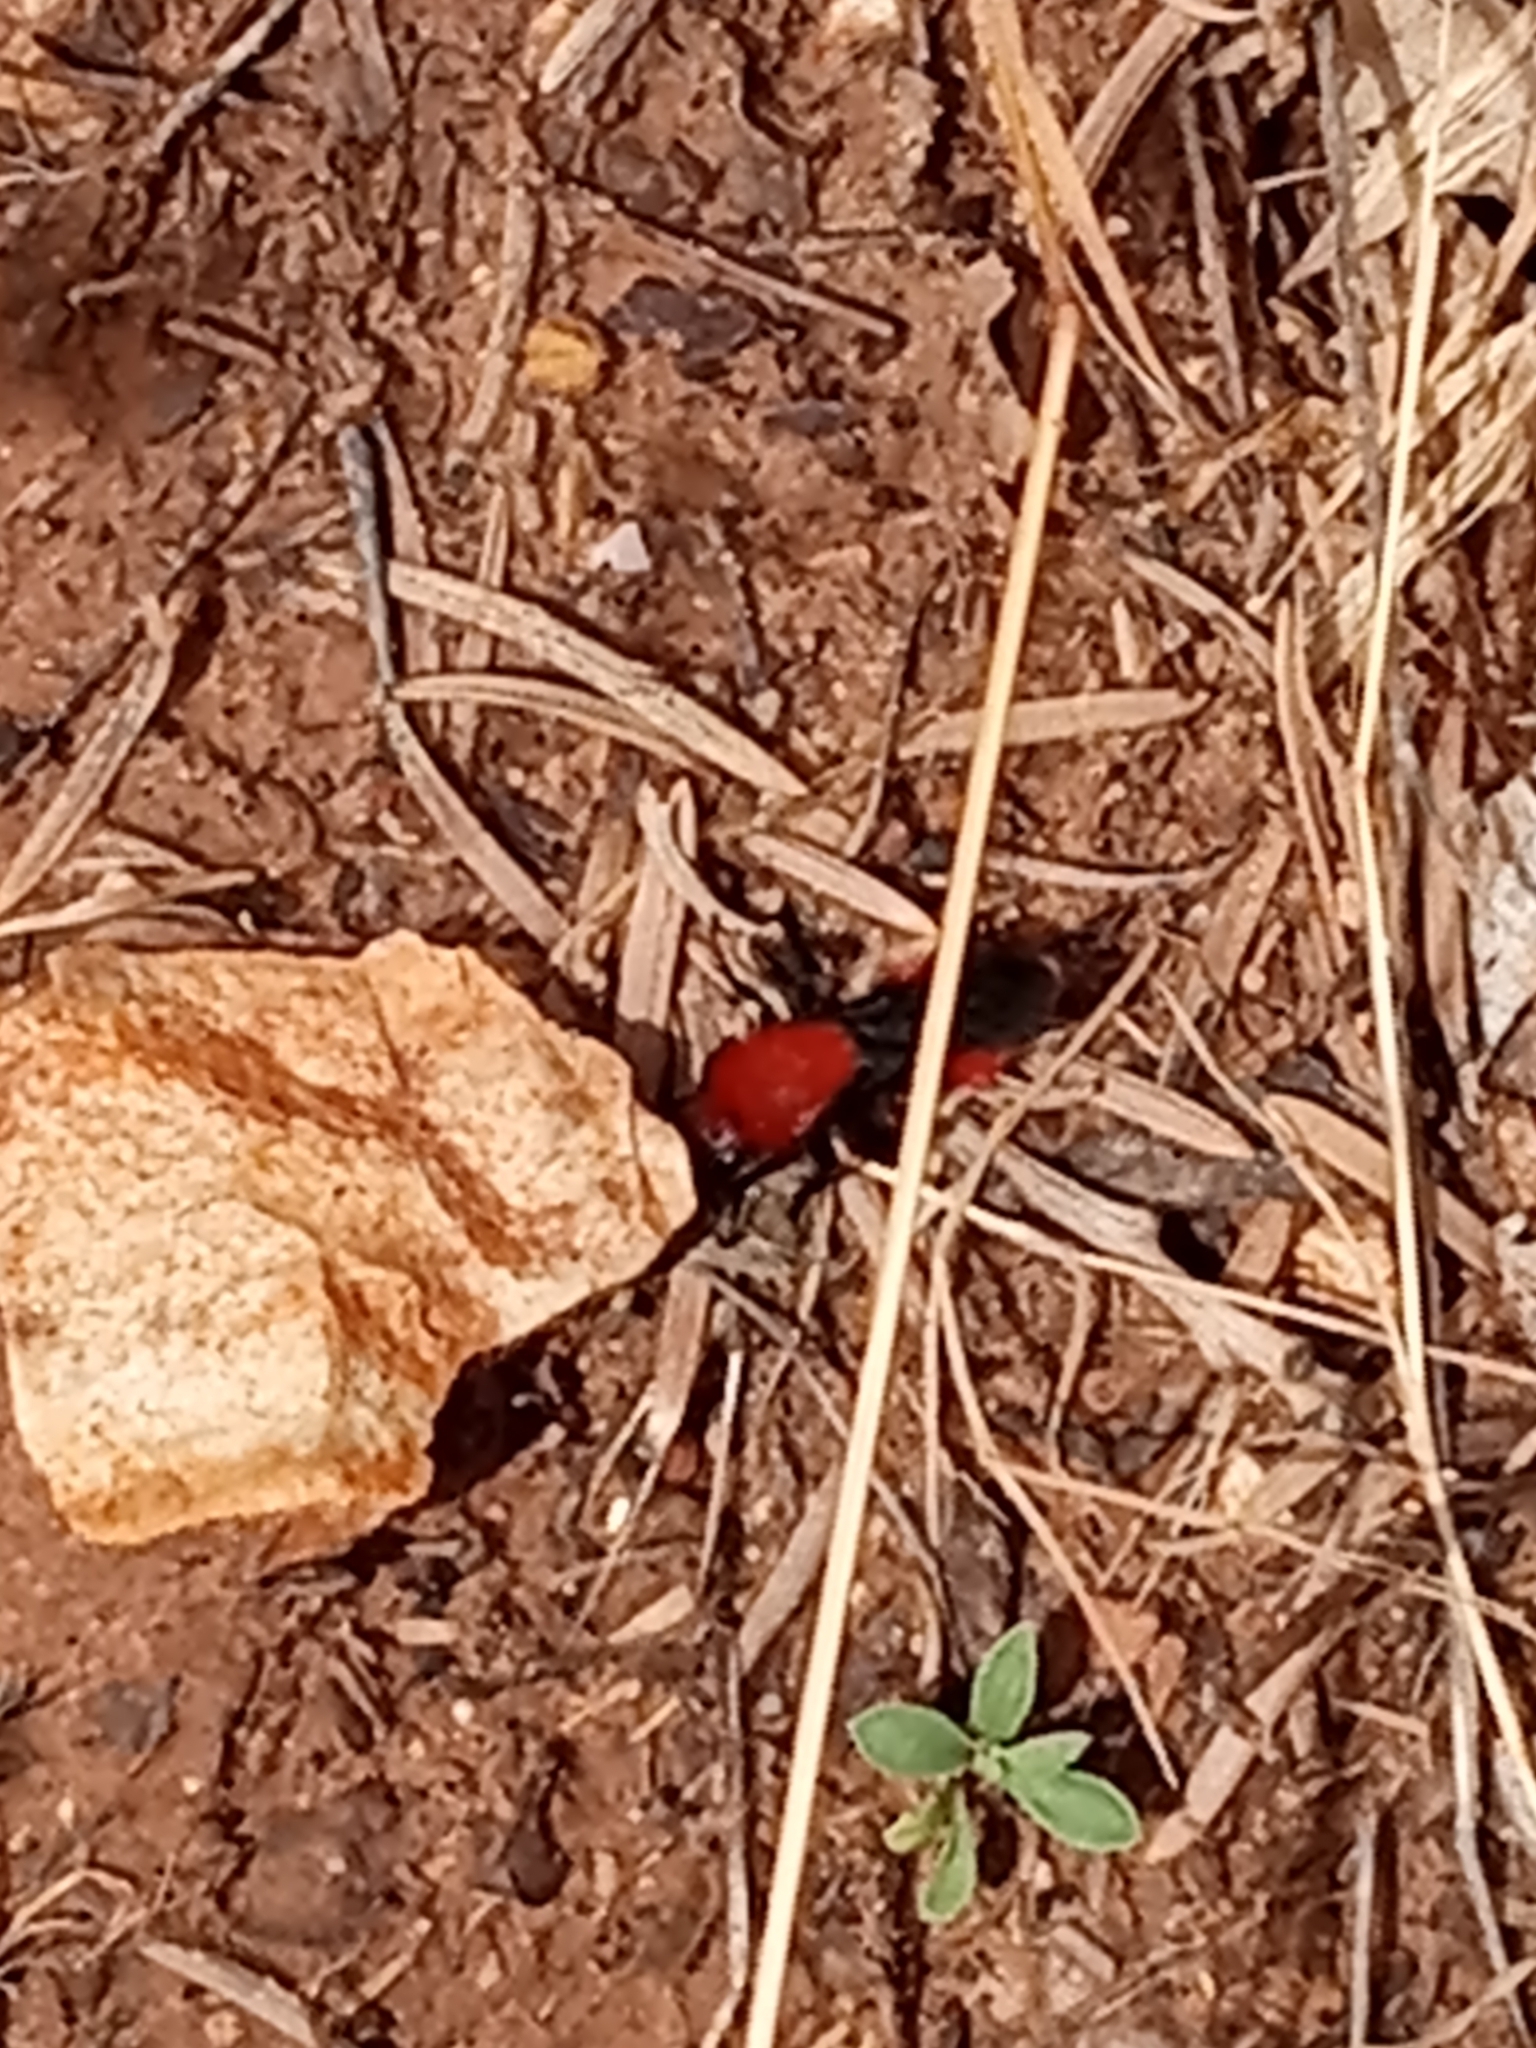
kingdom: Animalia
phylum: Arthropoda
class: Insecta
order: Hymenoptera
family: Mutillidae
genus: Dasymutilla
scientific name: Dasymutilla vestita
